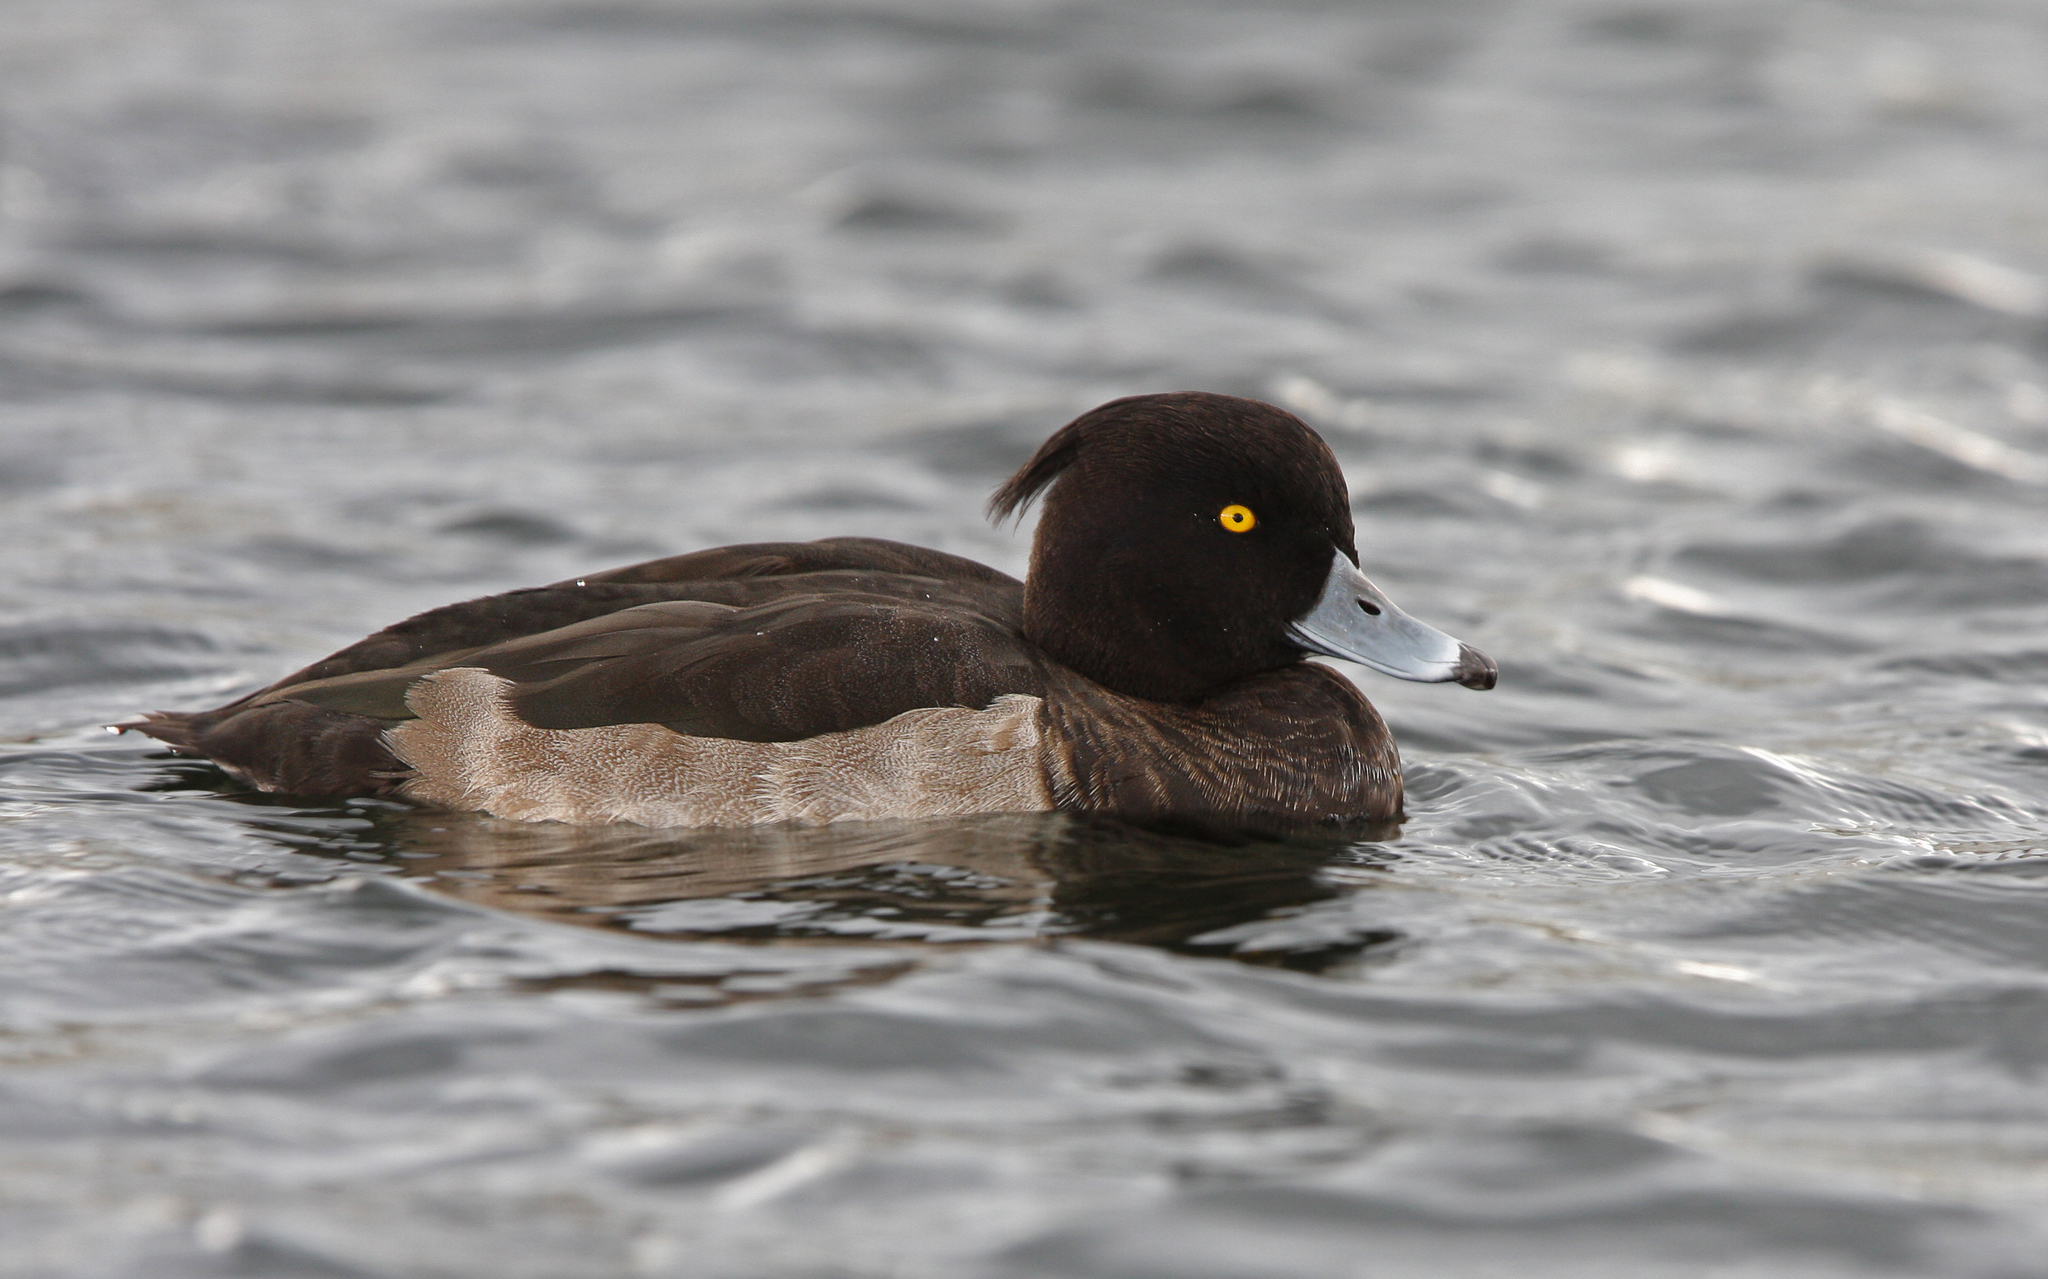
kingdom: Animalia
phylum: Chordata
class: Aves
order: Anseriformes
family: Anatidae
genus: Aythya
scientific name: Aythya fuligula
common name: Tufted duck
